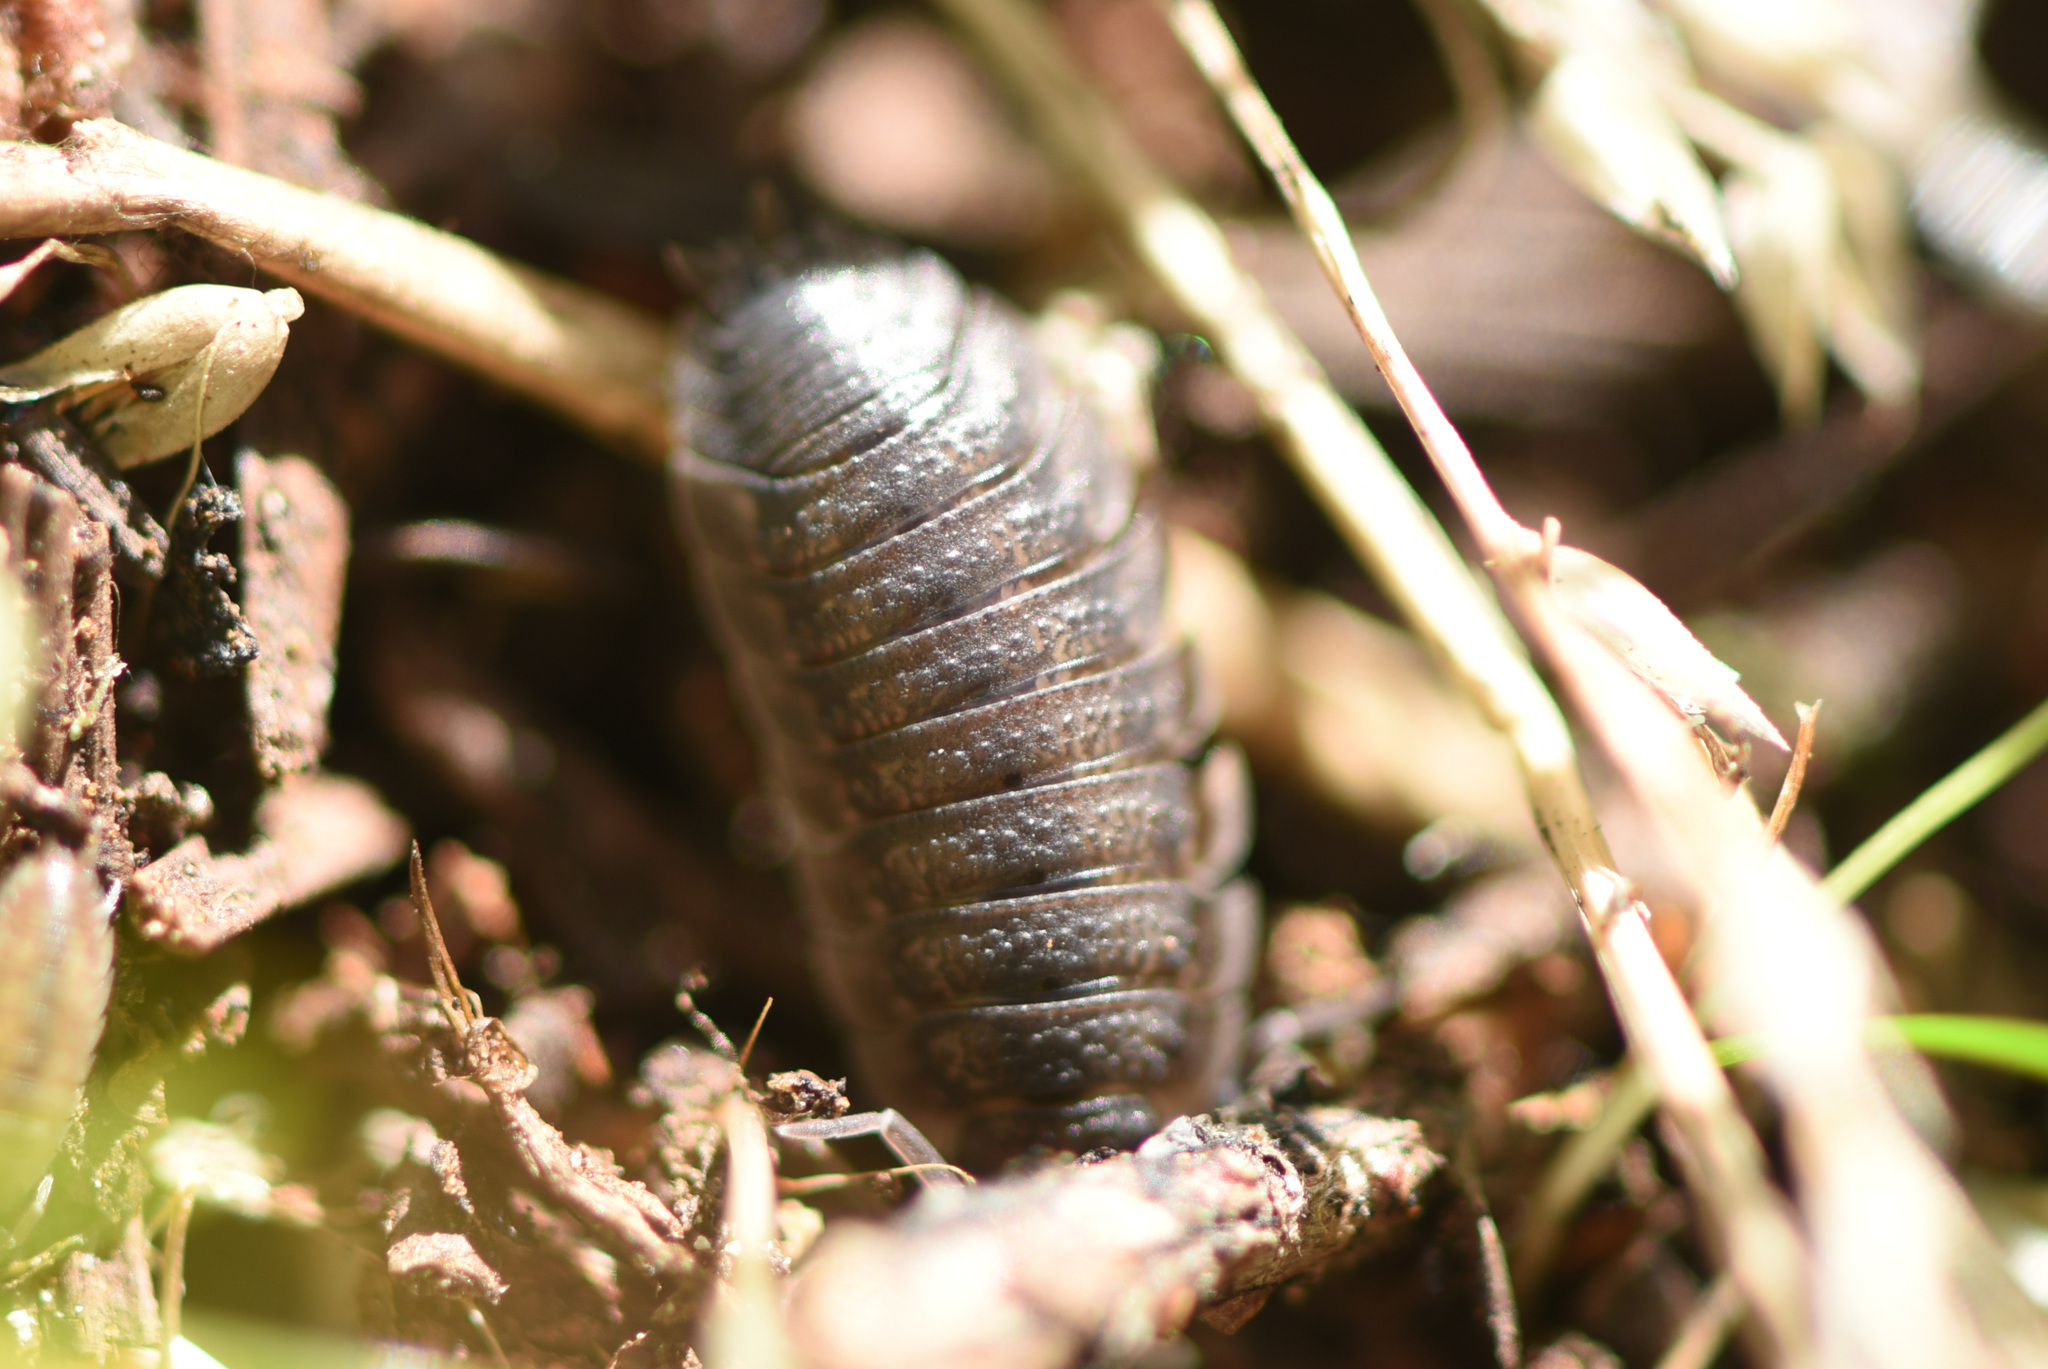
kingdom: Animalia
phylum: Arthropoda
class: Malacostraca
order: Isopoda
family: Porcellionidae
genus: Porcellio
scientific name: Porcellio scaber
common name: Common rough woodlouse
